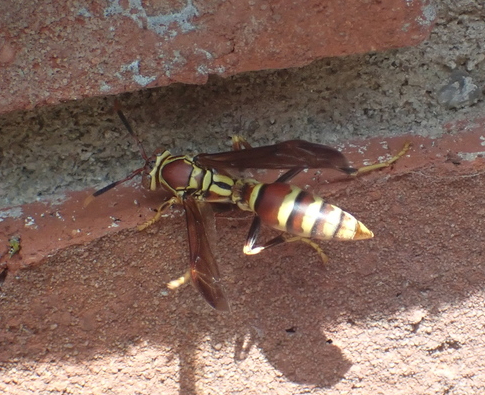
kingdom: Animalia
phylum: Arthropoda
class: Insecta
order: Hymenoptera
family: Eumenidae
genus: Polistes
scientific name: Polistes exclamans
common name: Paper wasp
